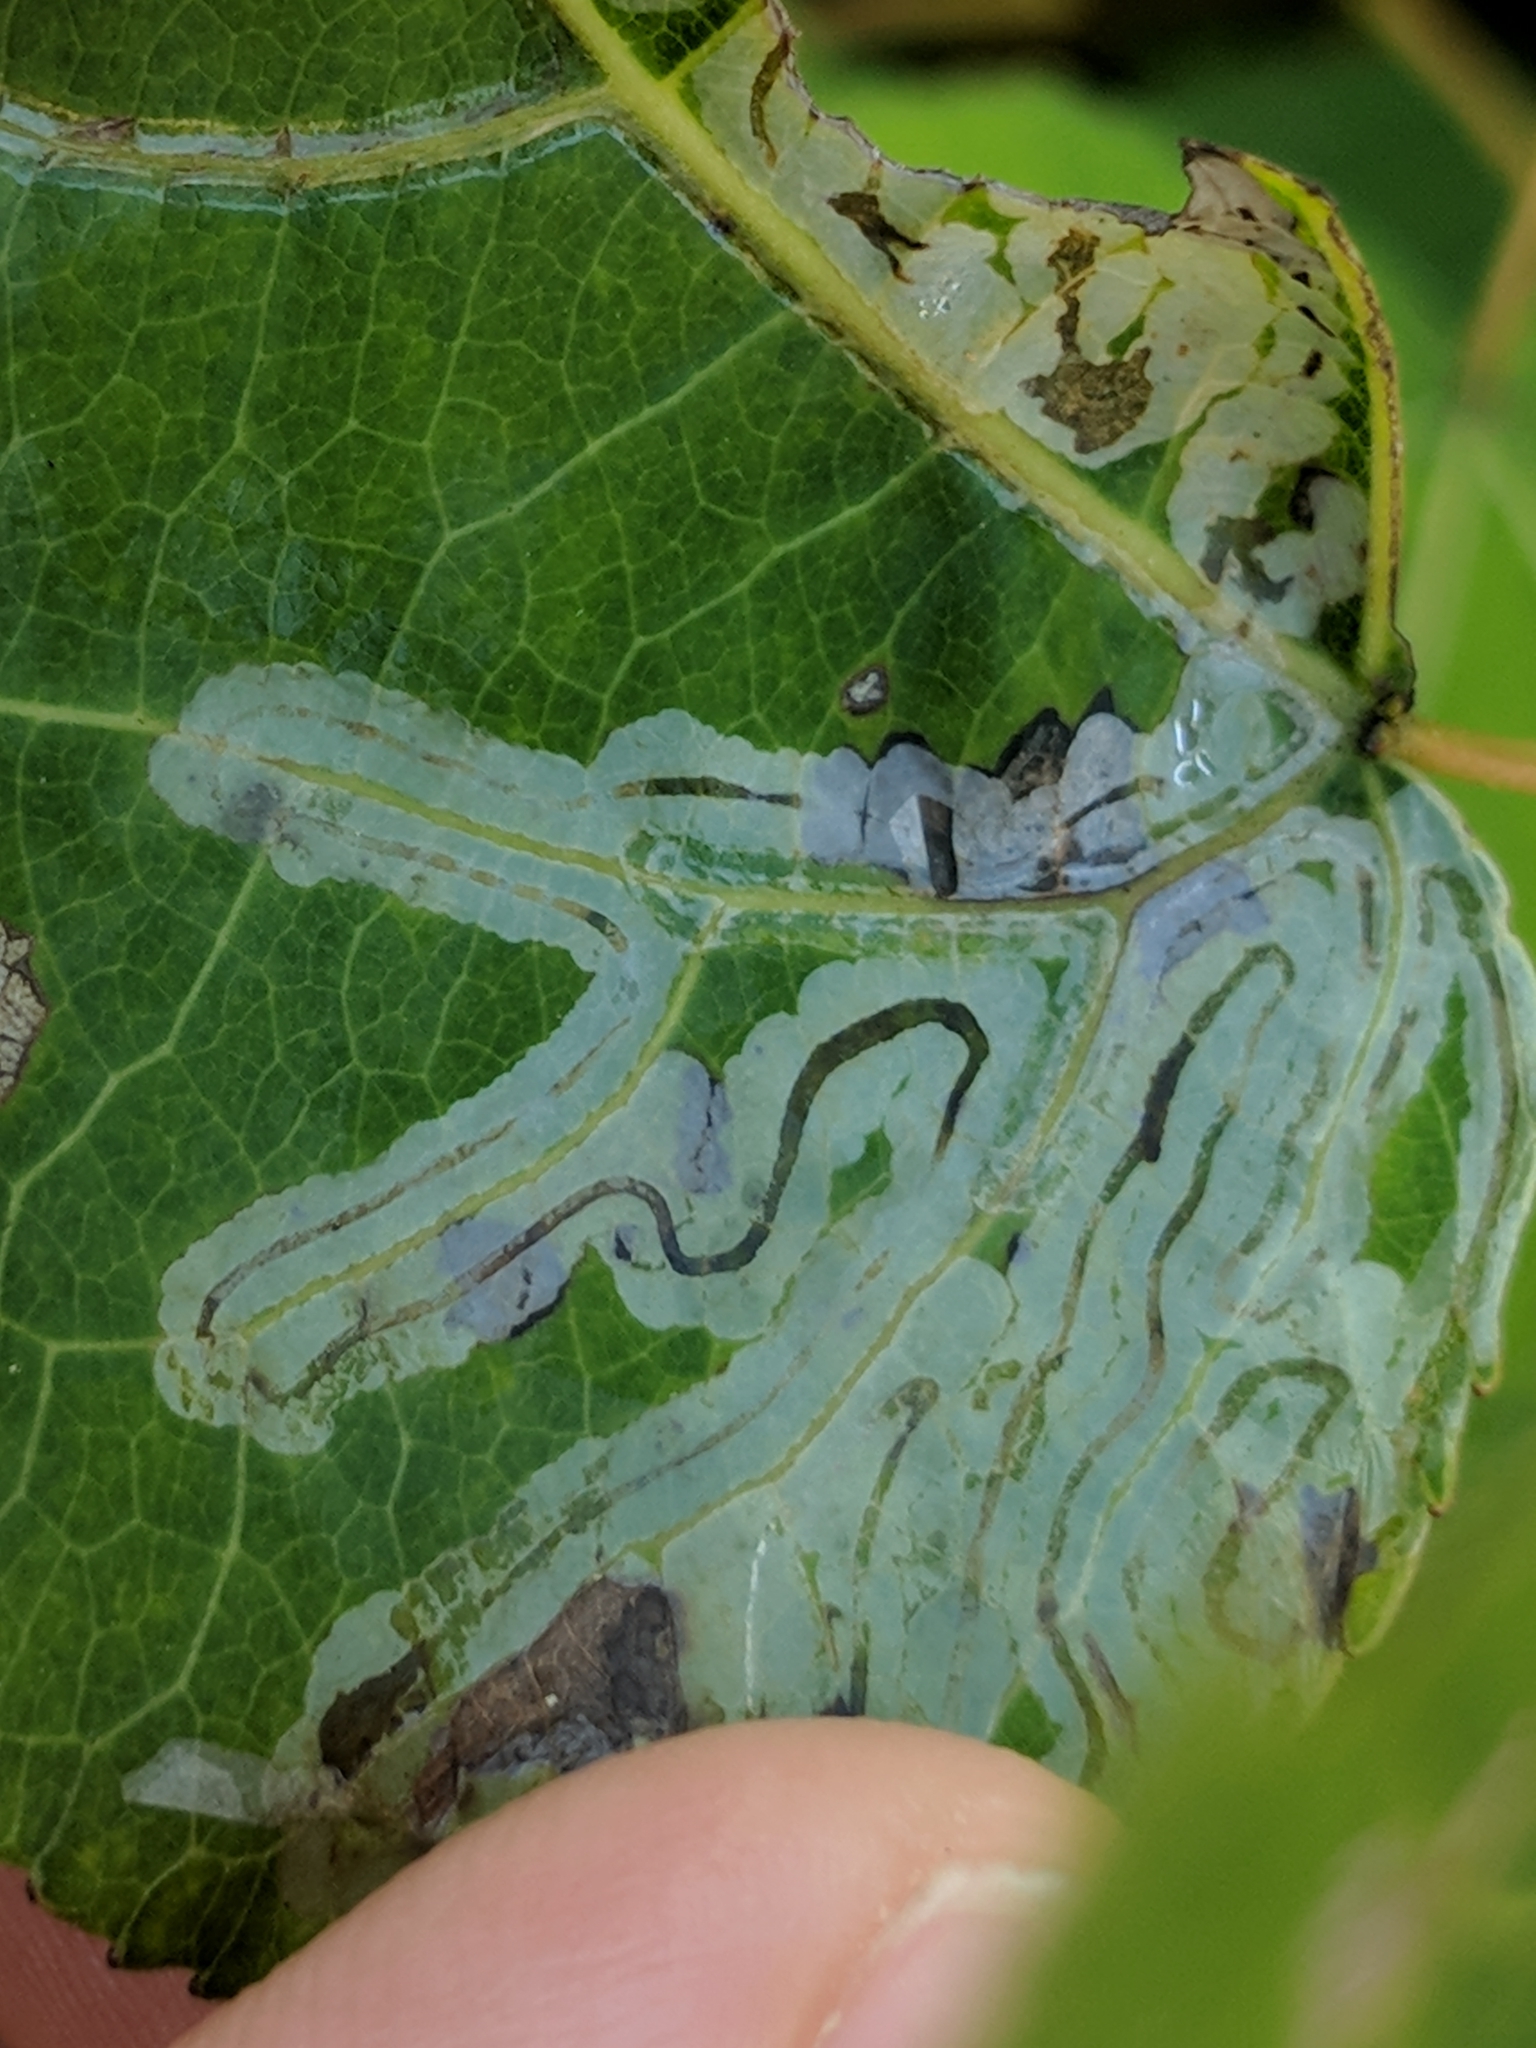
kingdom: Animalia
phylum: Arthropoda
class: Insecta
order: Lepidoptera
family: Gracillariidae
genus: Phyllocnistis
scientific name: Phyllocnistis populiella
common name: Aspen serpentine leafminer moth
